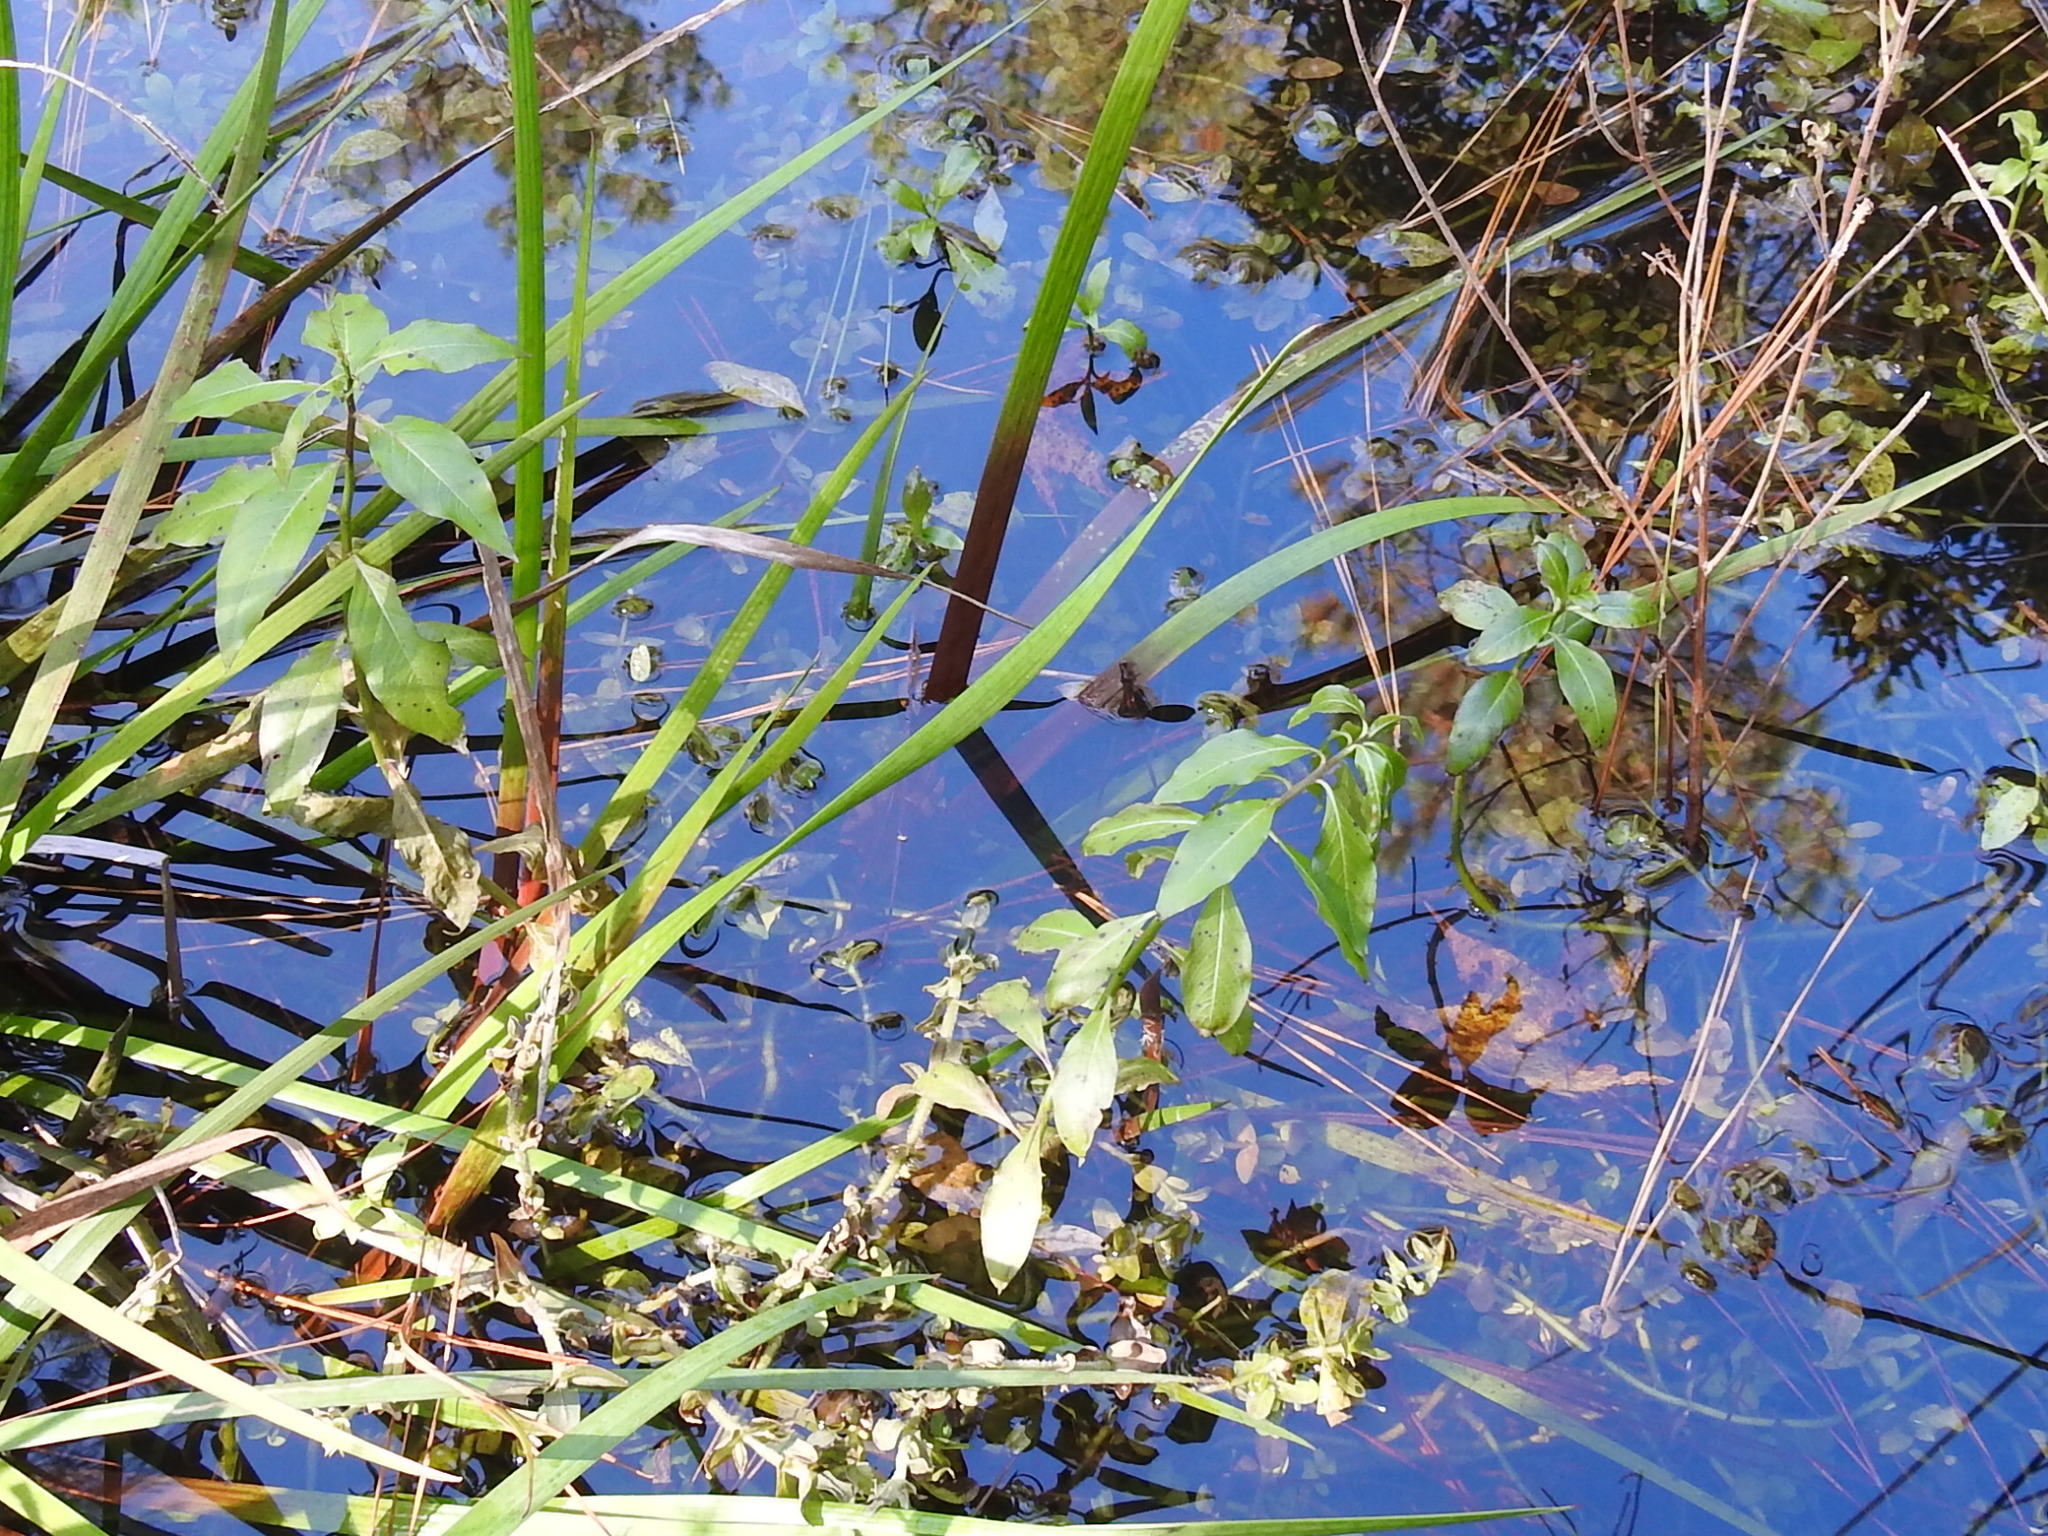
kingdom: Plantae
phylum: Tracheophyta
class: Magnoliopsida
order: Solanales
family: Hydroleaceae
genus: Hydrolea
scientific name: Hydrolea uniflora
